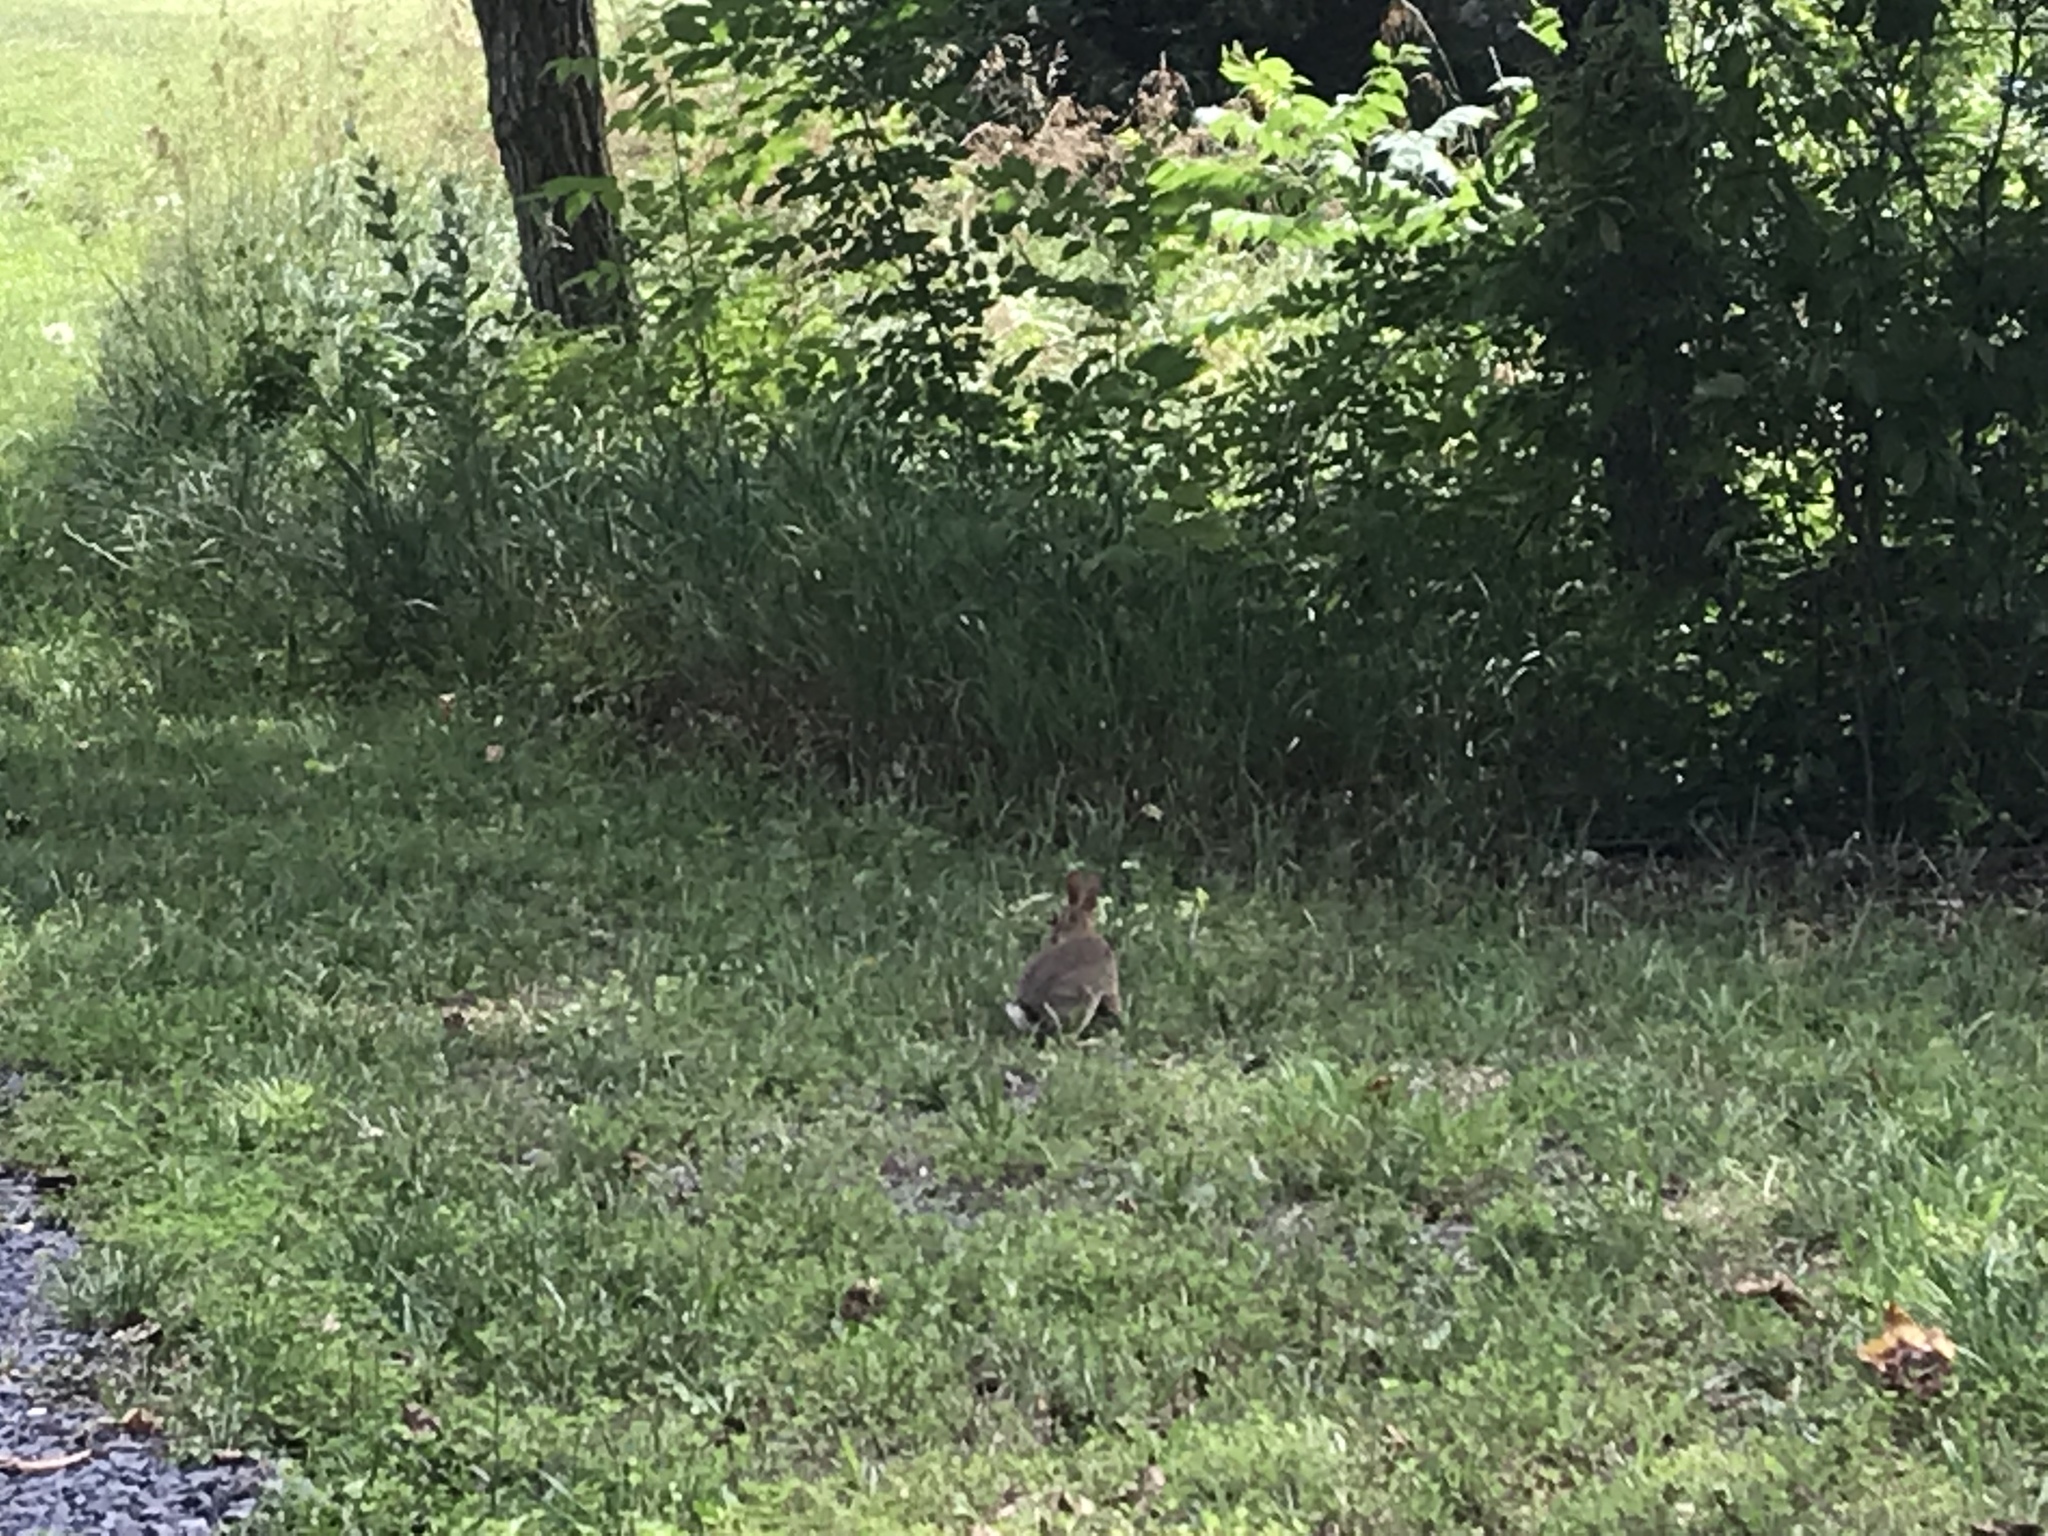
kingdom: Animalia
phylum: Chordata
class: Mammalia
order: Lagomorpha
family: Leporidae
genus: Sylvilagus
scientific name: Sylvilagus floridanus
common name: Eastern cottontail
